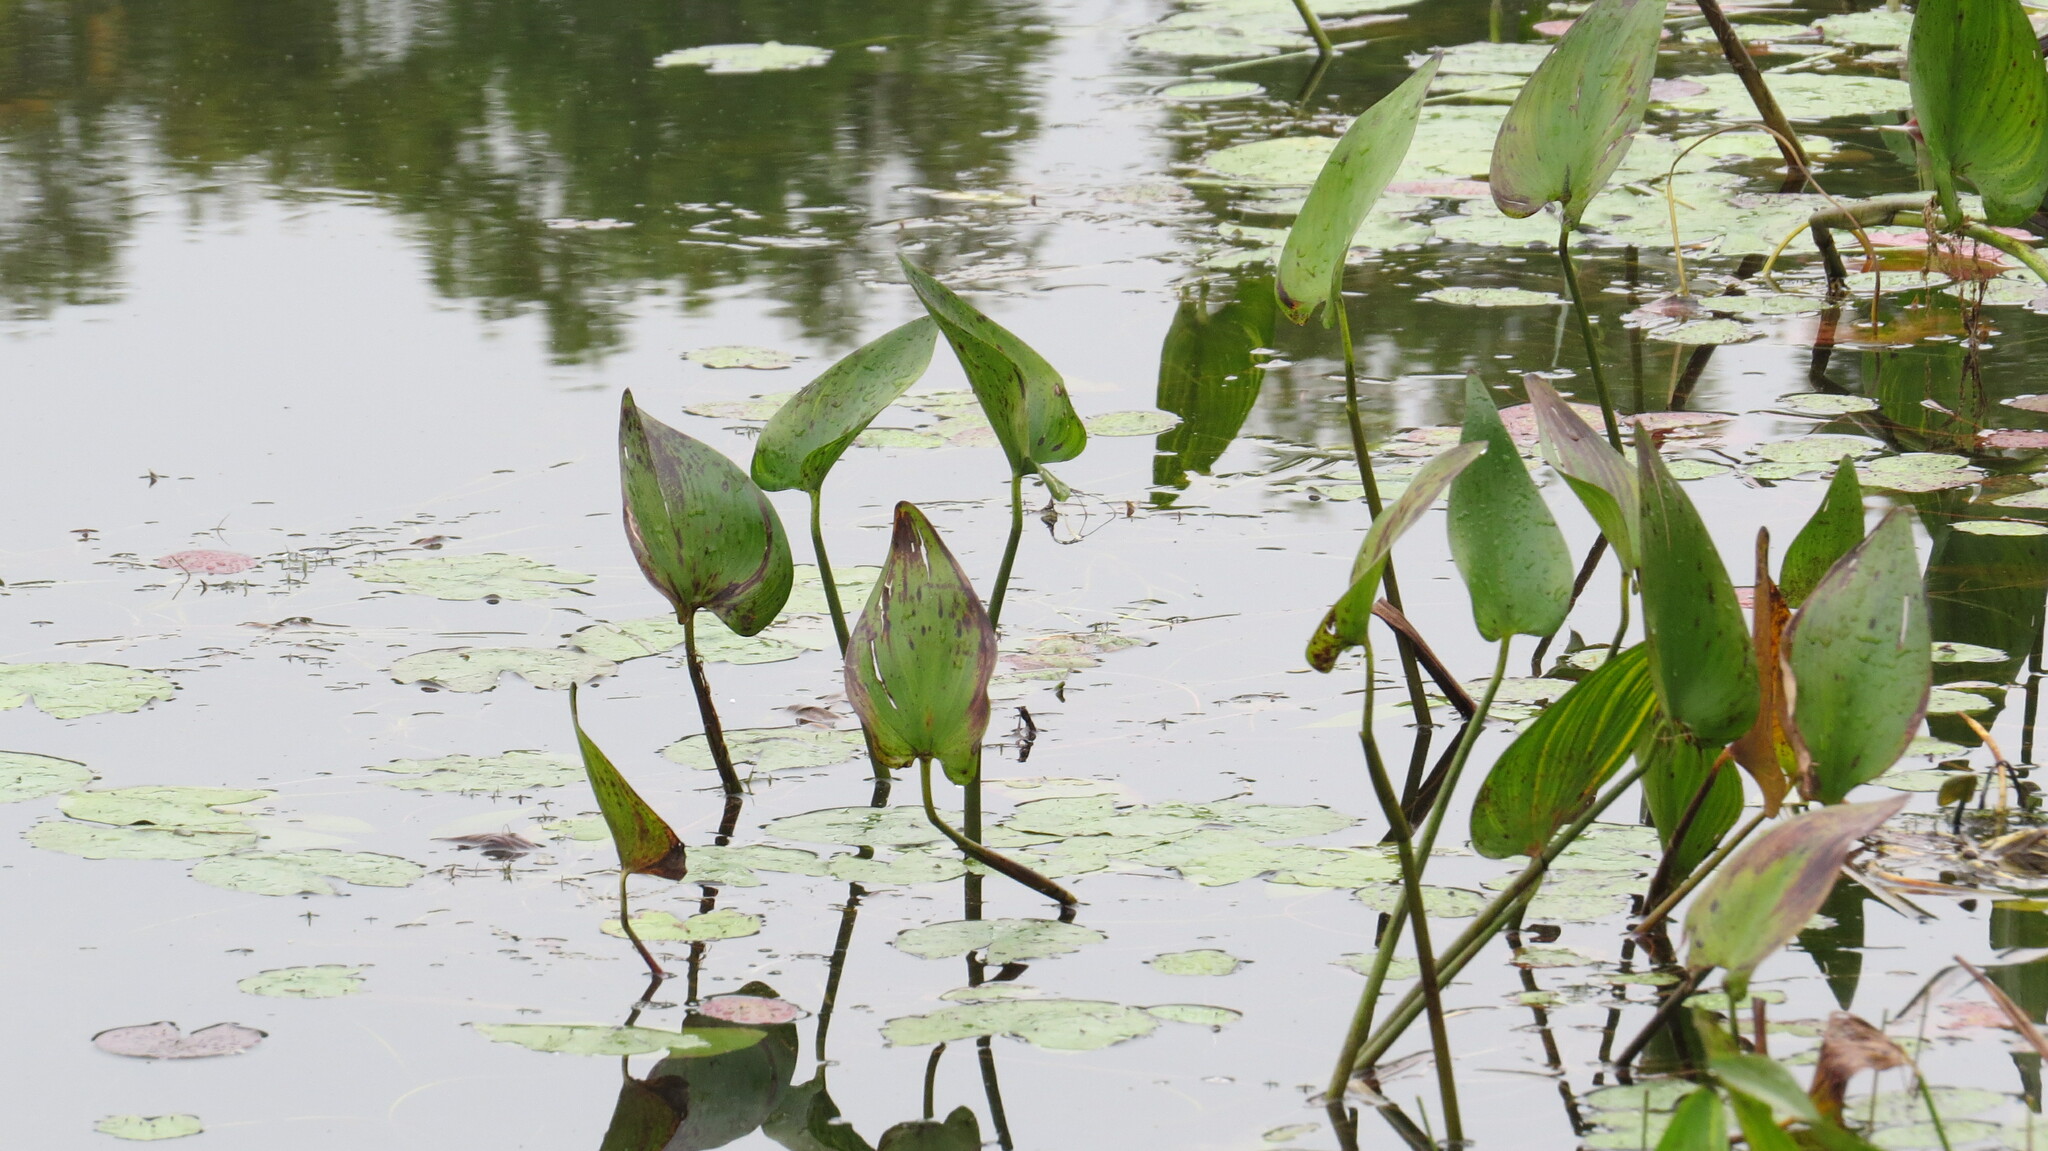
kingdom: Plantae
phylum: Tracheophyta
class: Liliopsida
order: Commelinales
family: Pontederiaceae
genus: Pontederia
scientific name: Pontederia cordata
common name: Pickerelweed
